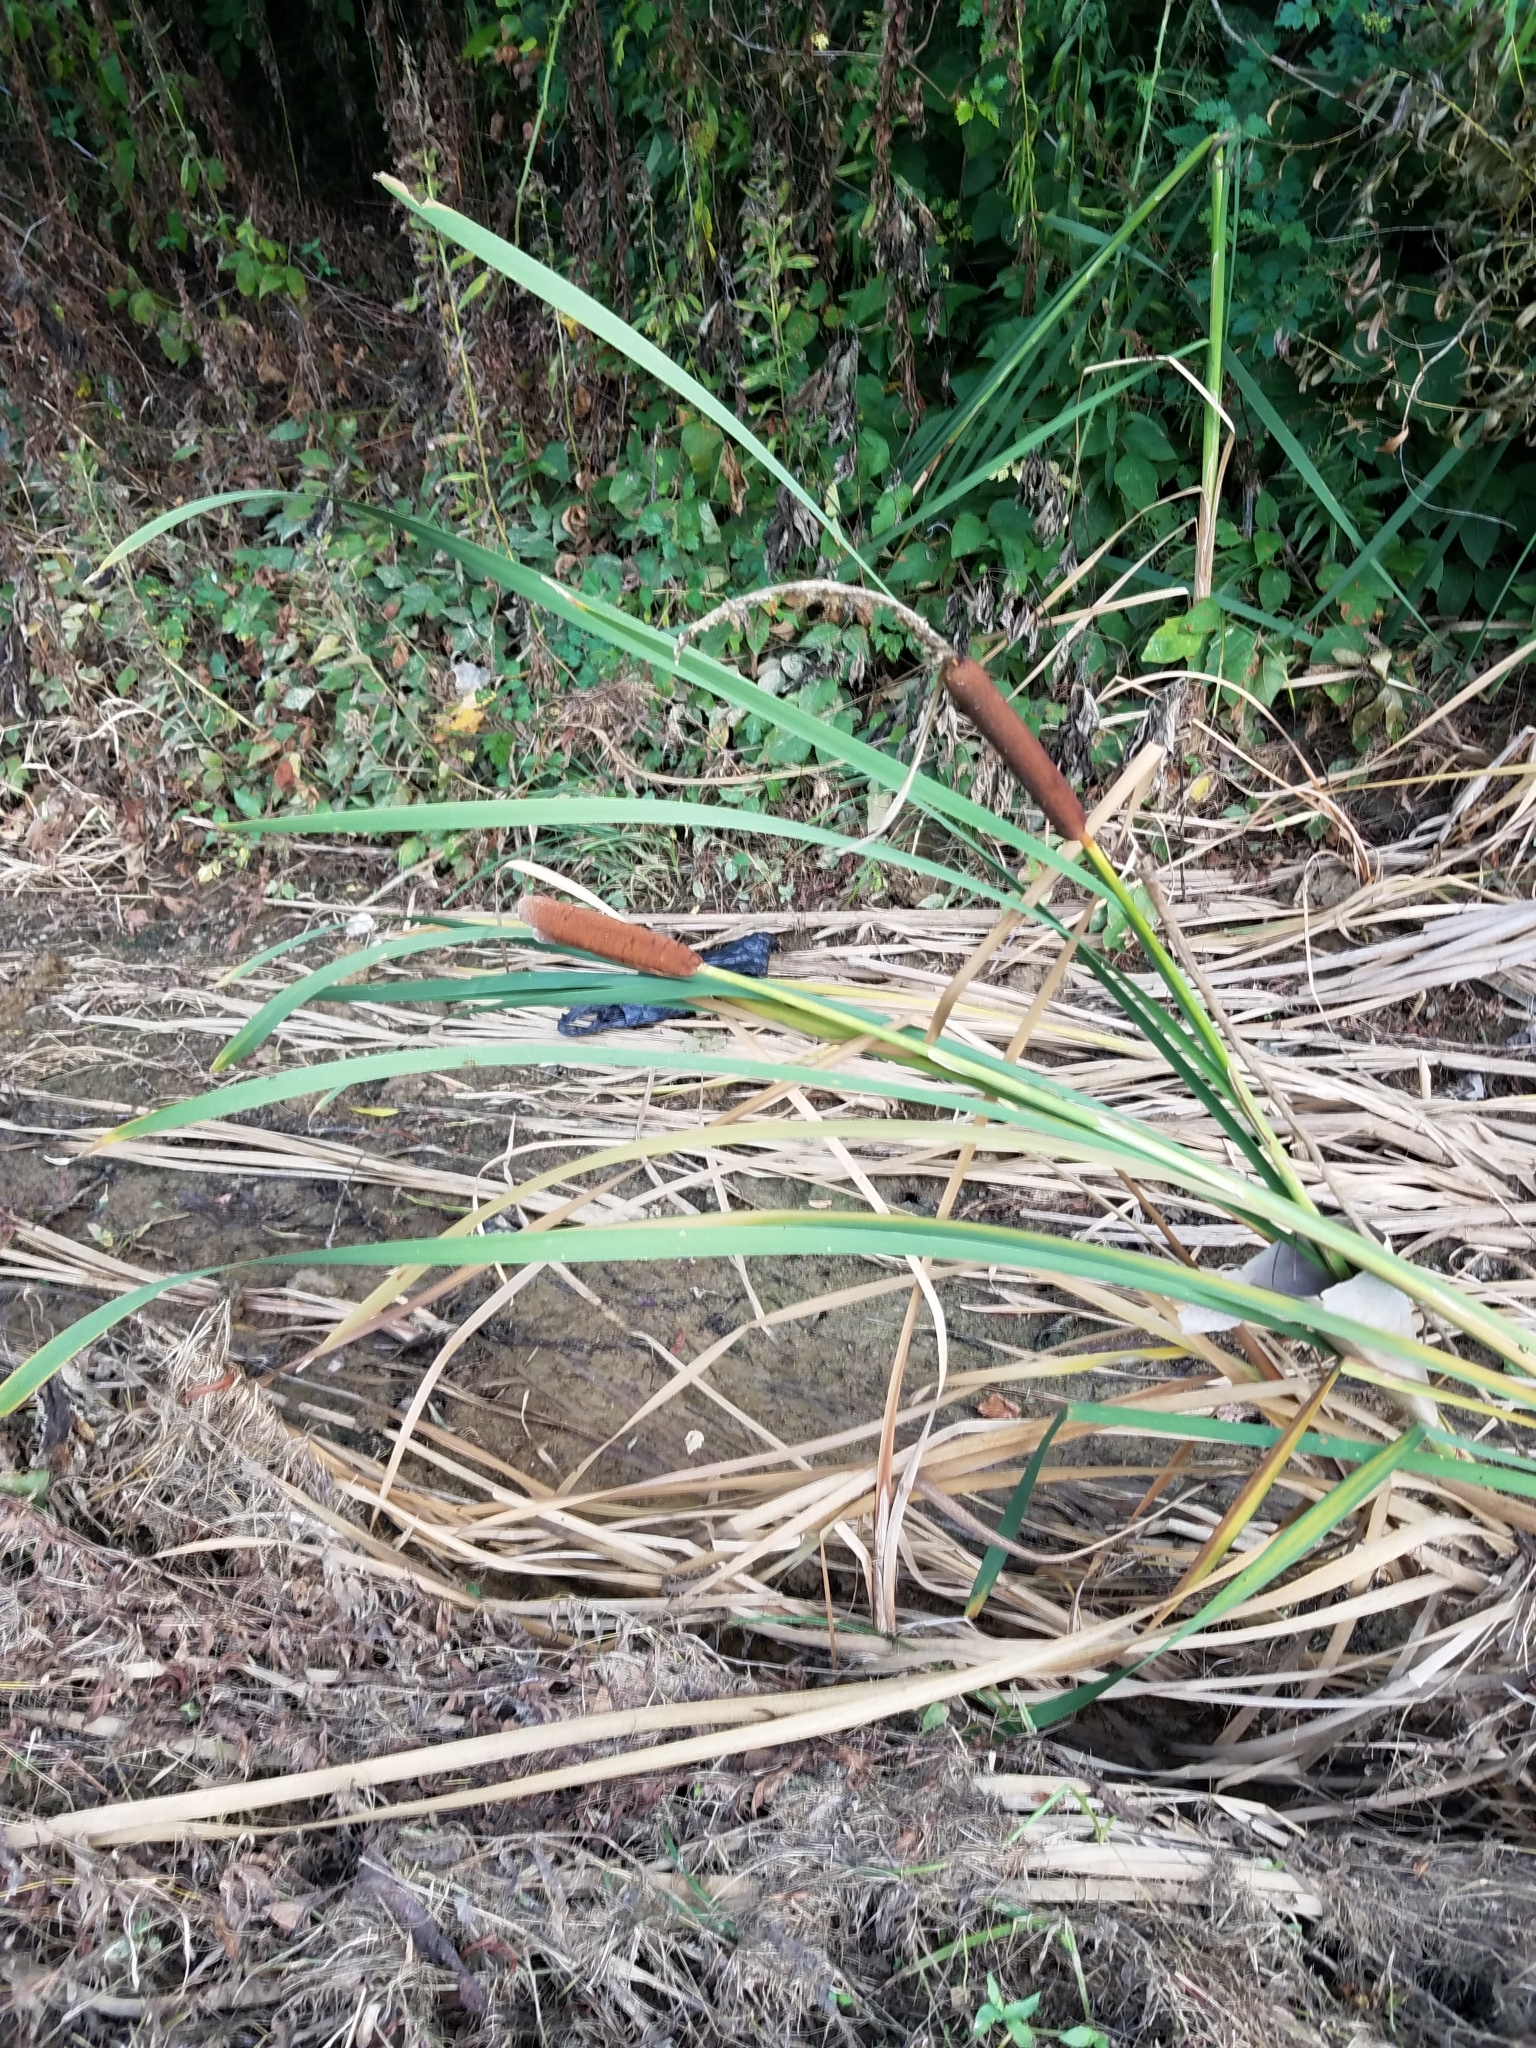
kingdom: Plantae
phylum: Tracheophyta
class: Liliopsida
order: Poales
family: Typhaceae
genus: Typha
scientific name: Typha angustifolia
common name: Lesser bulrush
